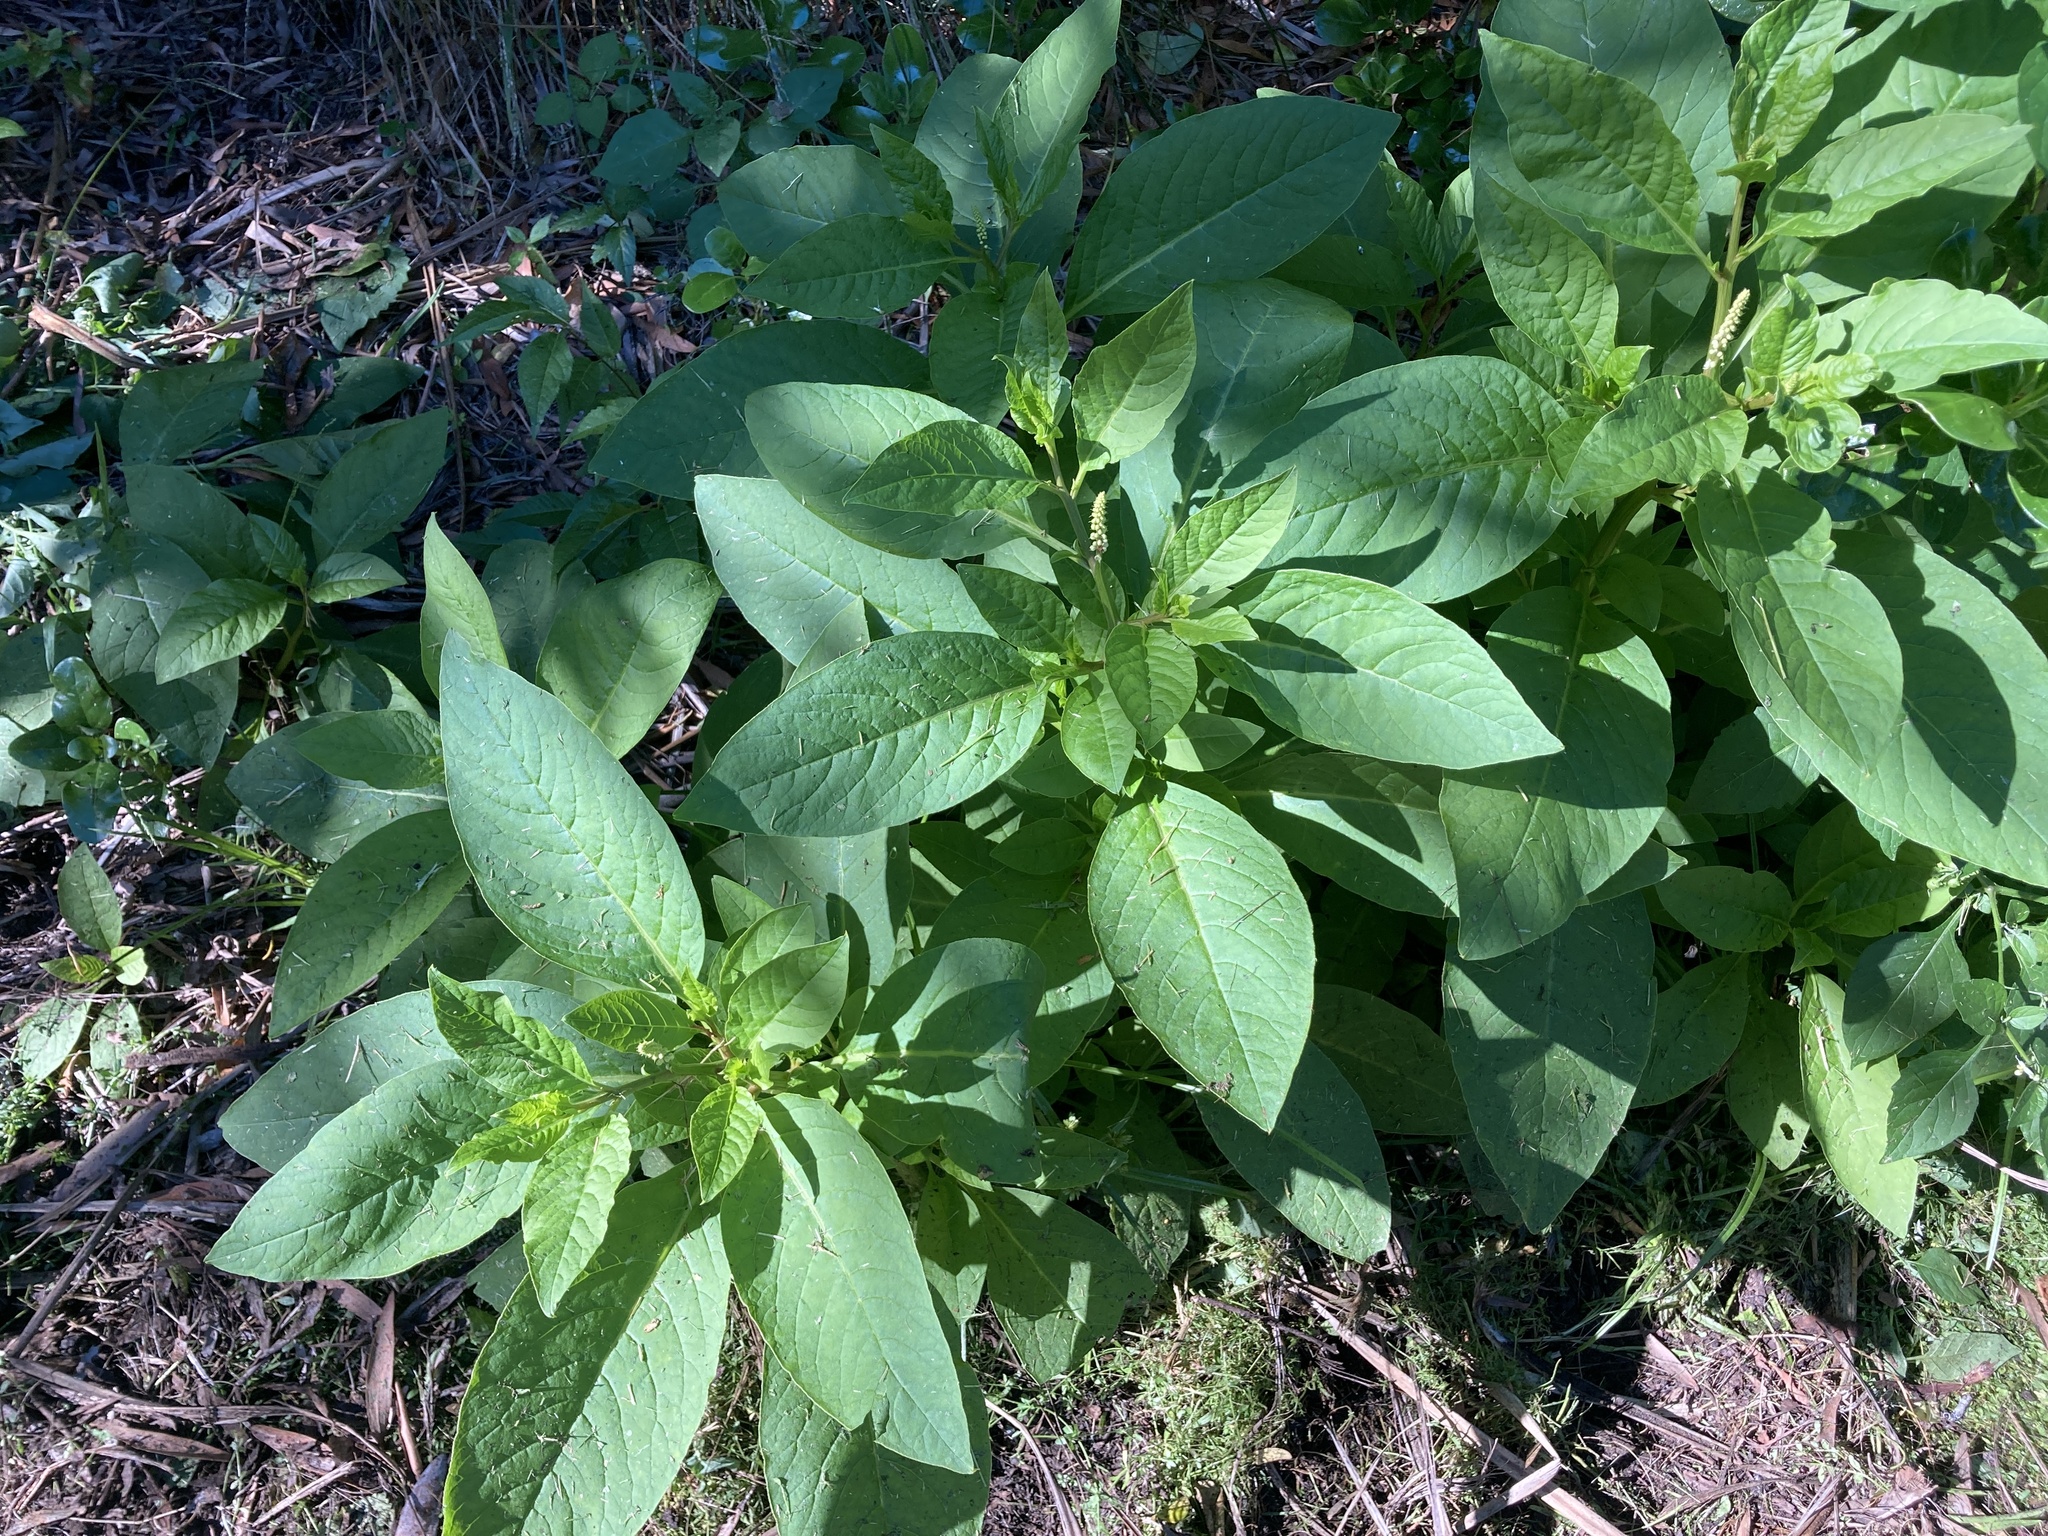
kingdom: Plantae
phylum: Tracheophyta
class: Magnoliopsida
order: Caryophyllales
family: Phytolaccaceae
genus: Phytolacca
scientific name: Phytolacca icosandra
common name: Button pokeweed
